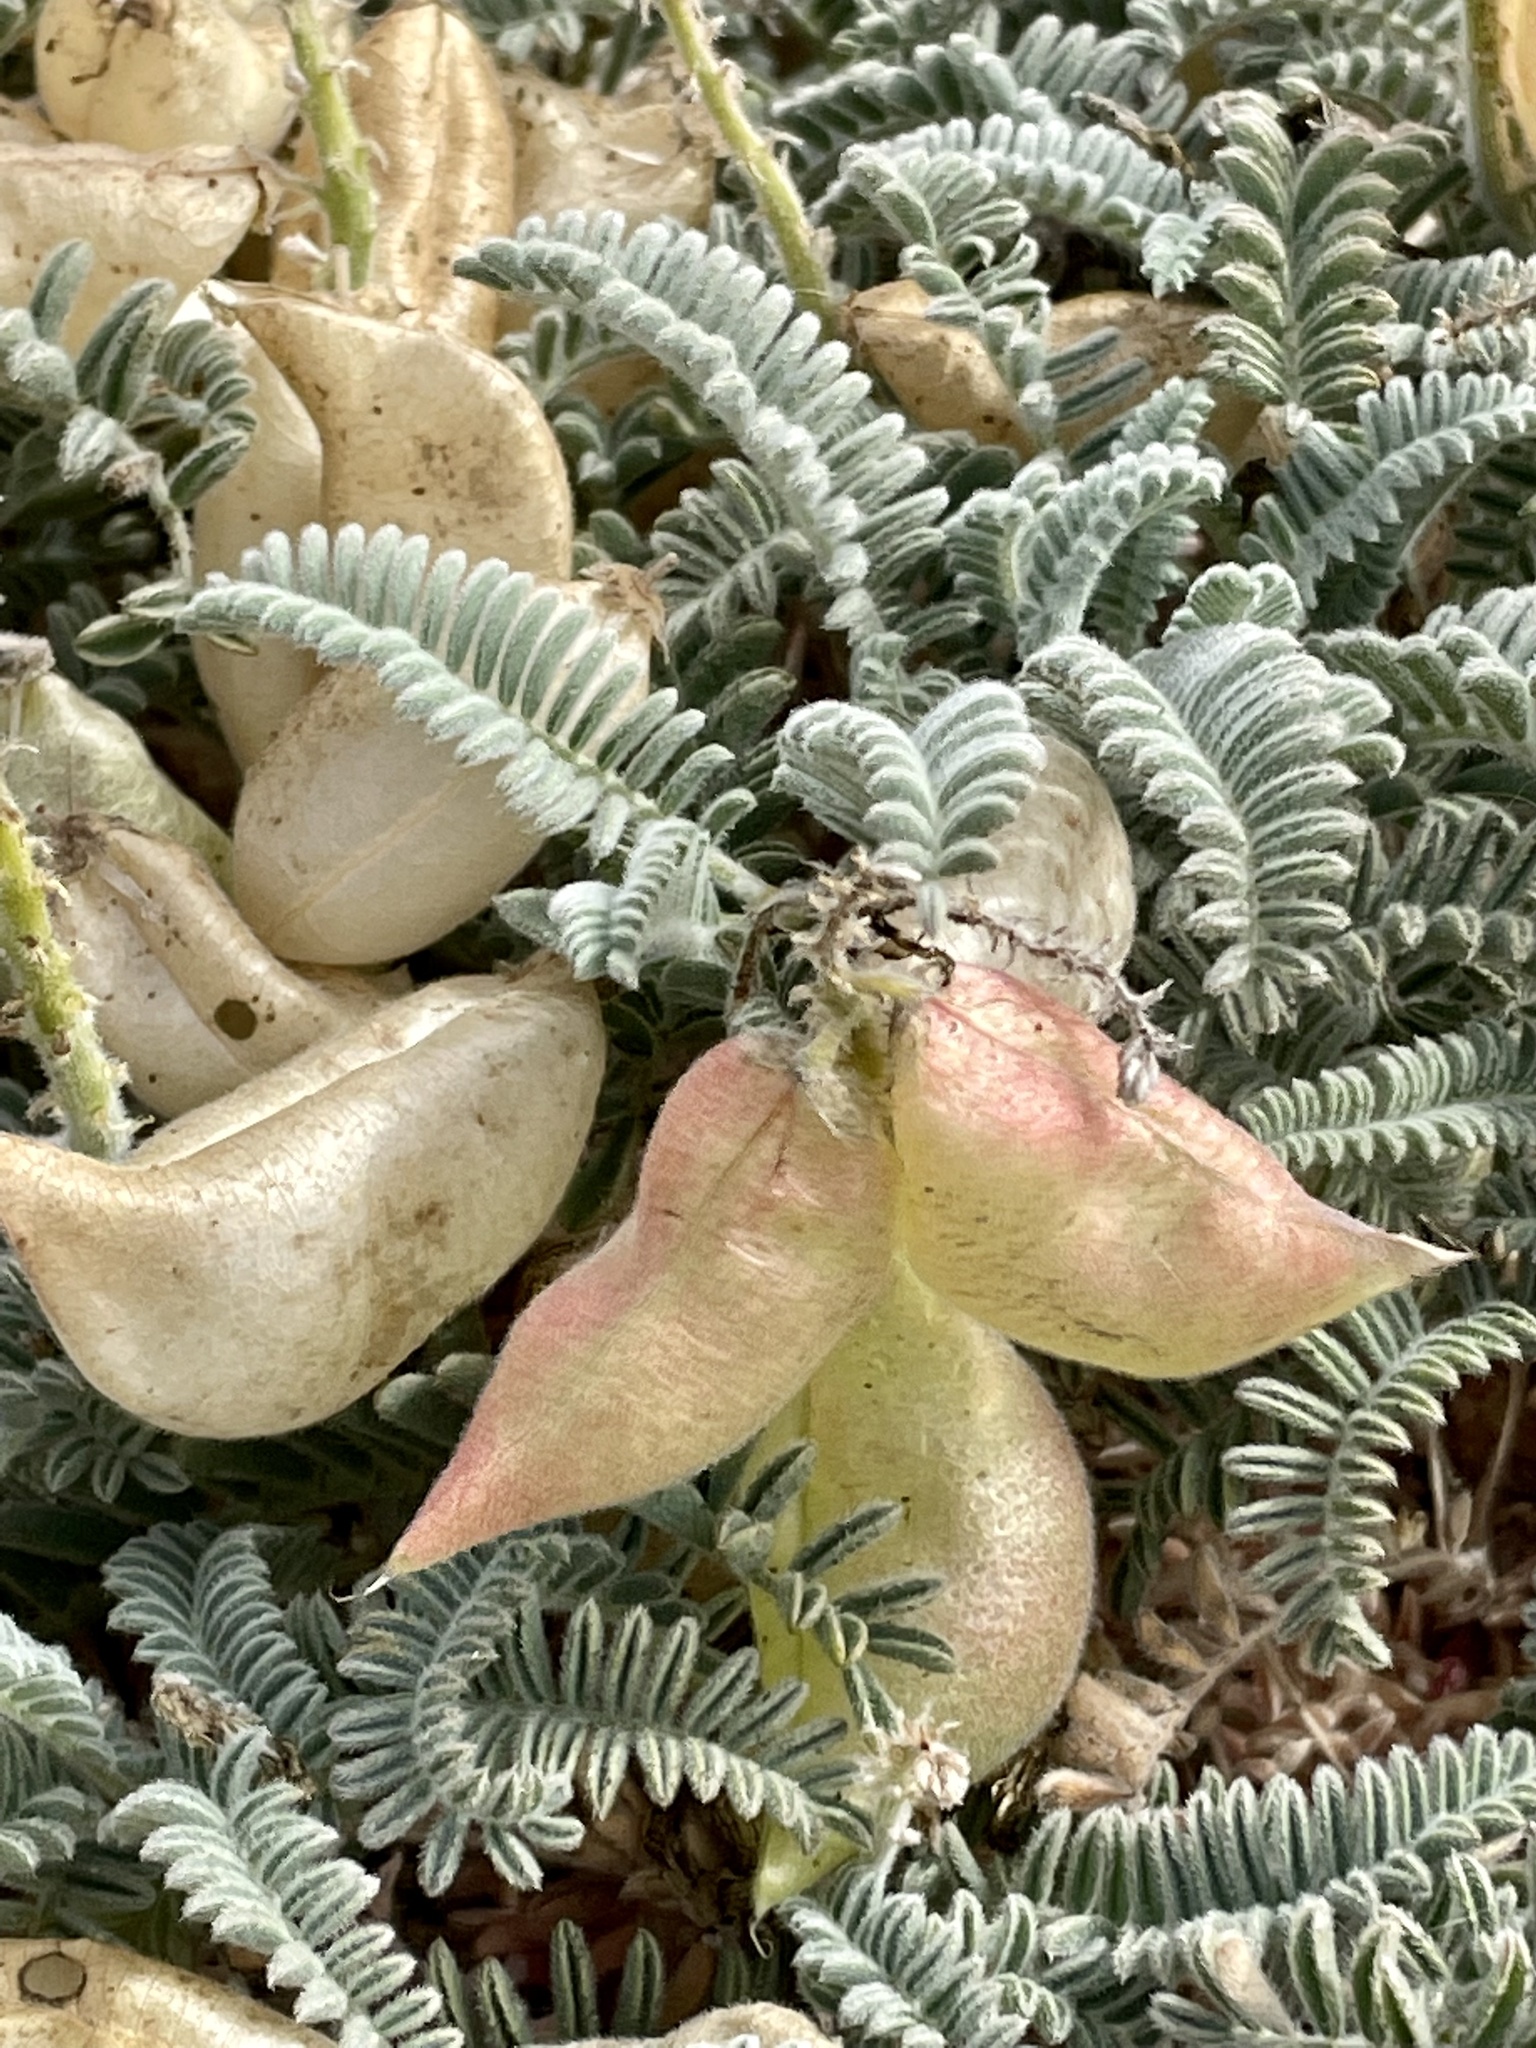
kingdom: Plantae
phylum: Tracheophyta
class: Magnoliopsida
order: Fabales
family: Fabaceae
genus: Astragalus
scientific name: Astragalus nuttallii
